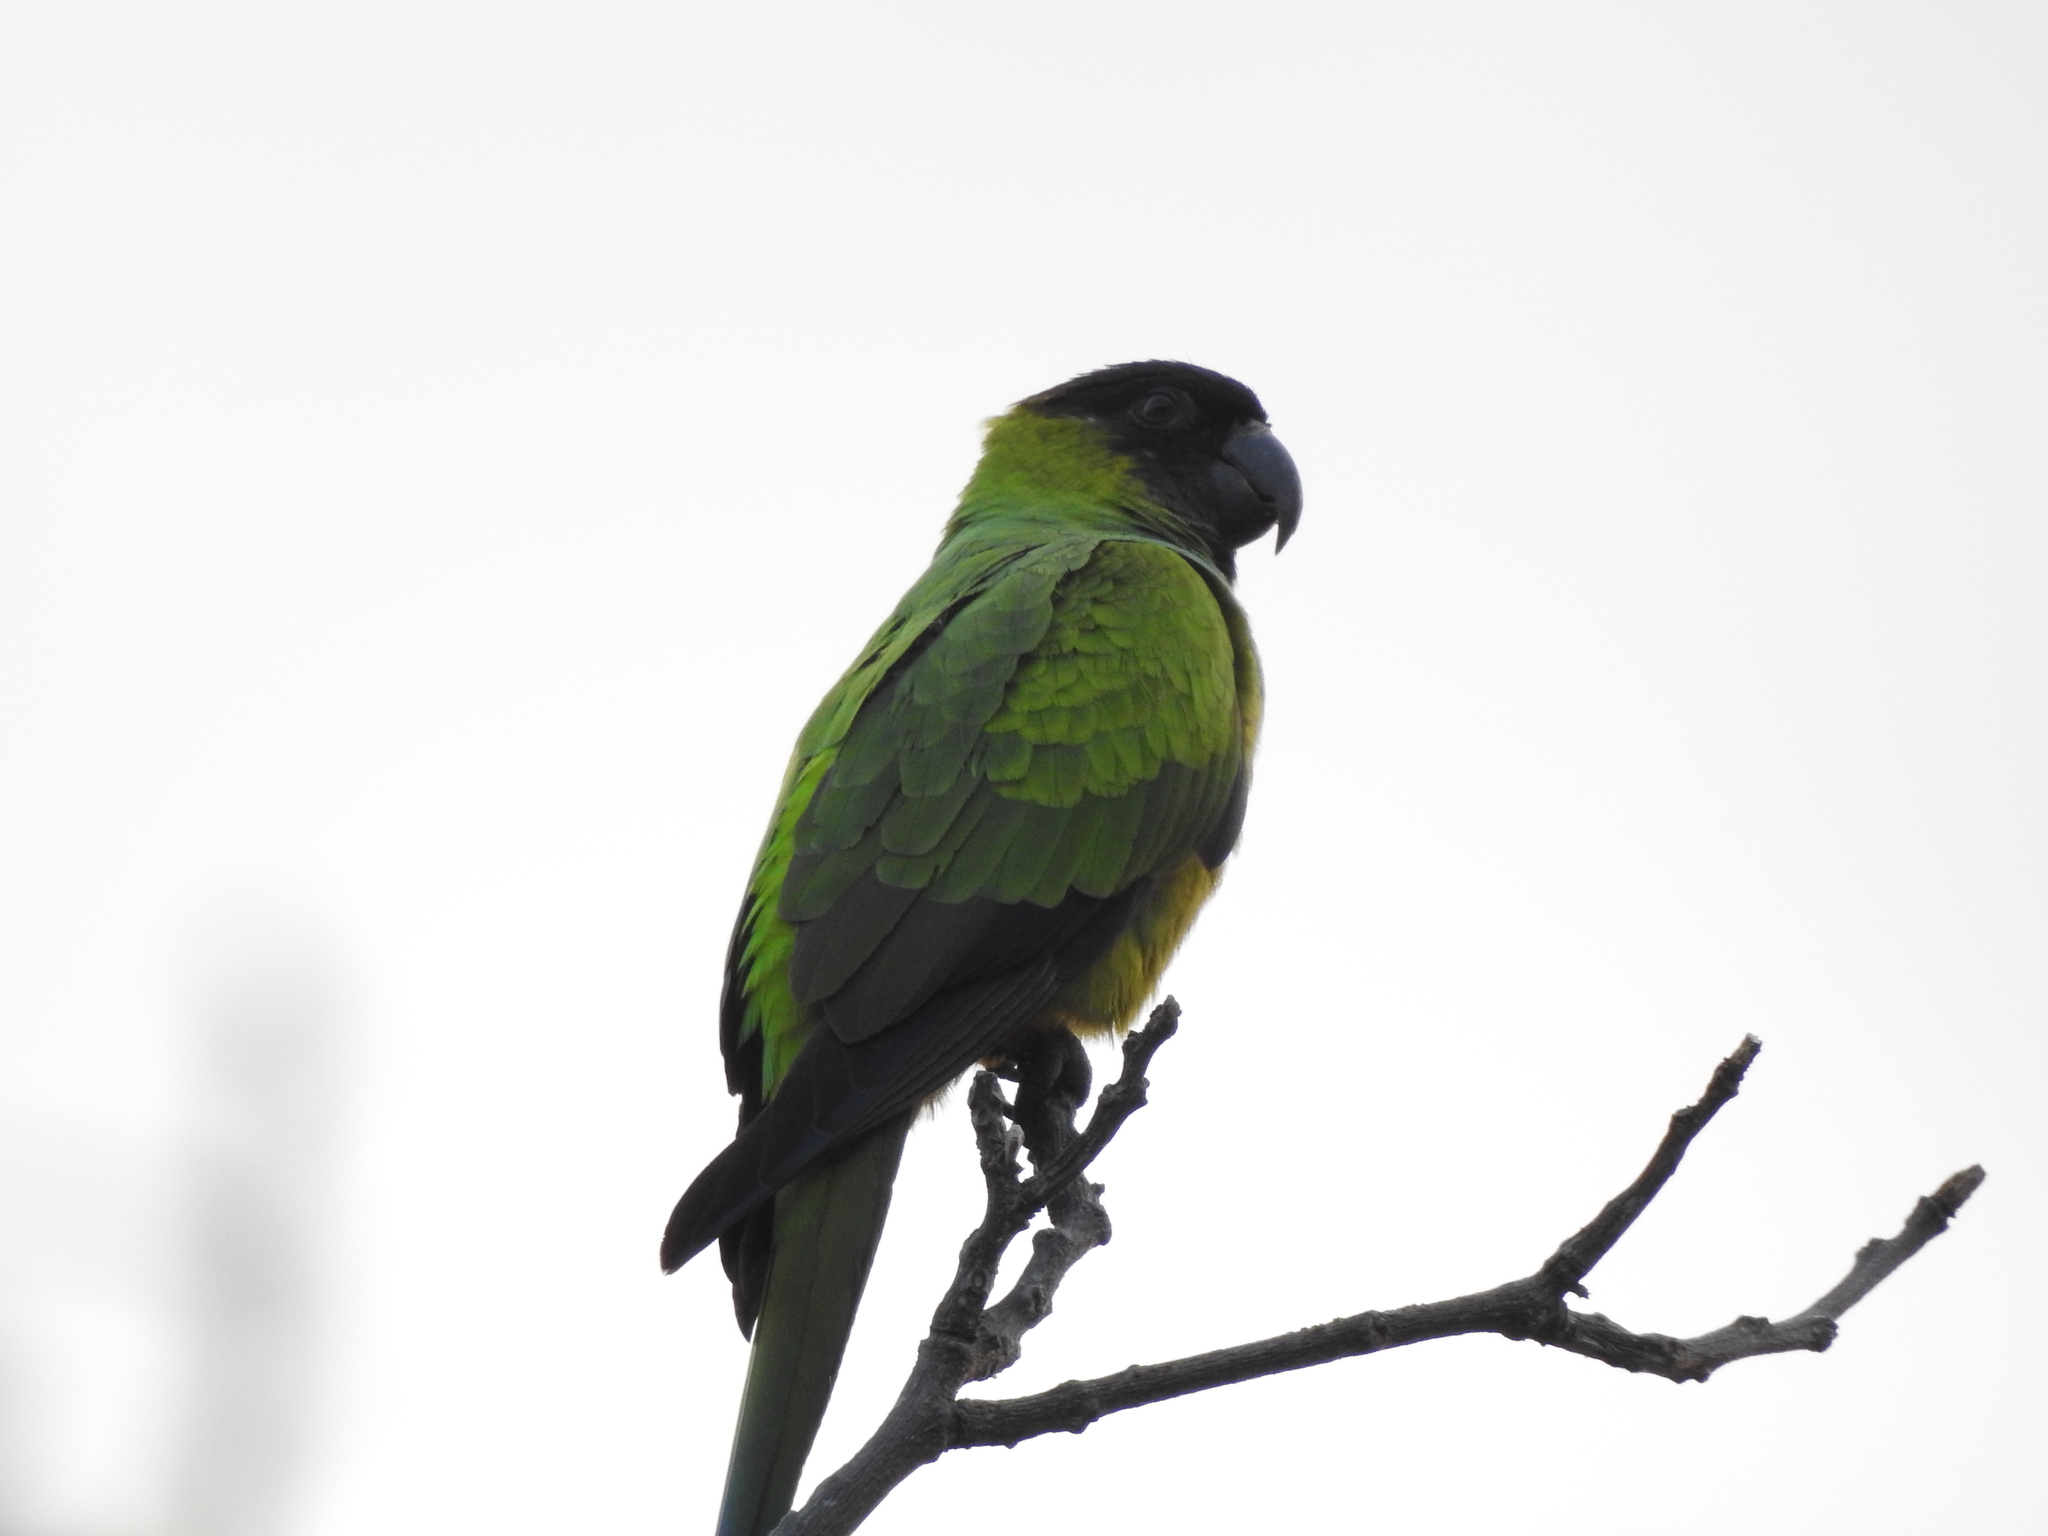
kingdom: Animalia
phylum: Chordata
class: Aves
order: Psittaciformes
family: Psittacidae
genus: Nandayus
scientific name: Nandayus nenday
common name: Nanday parakeet
